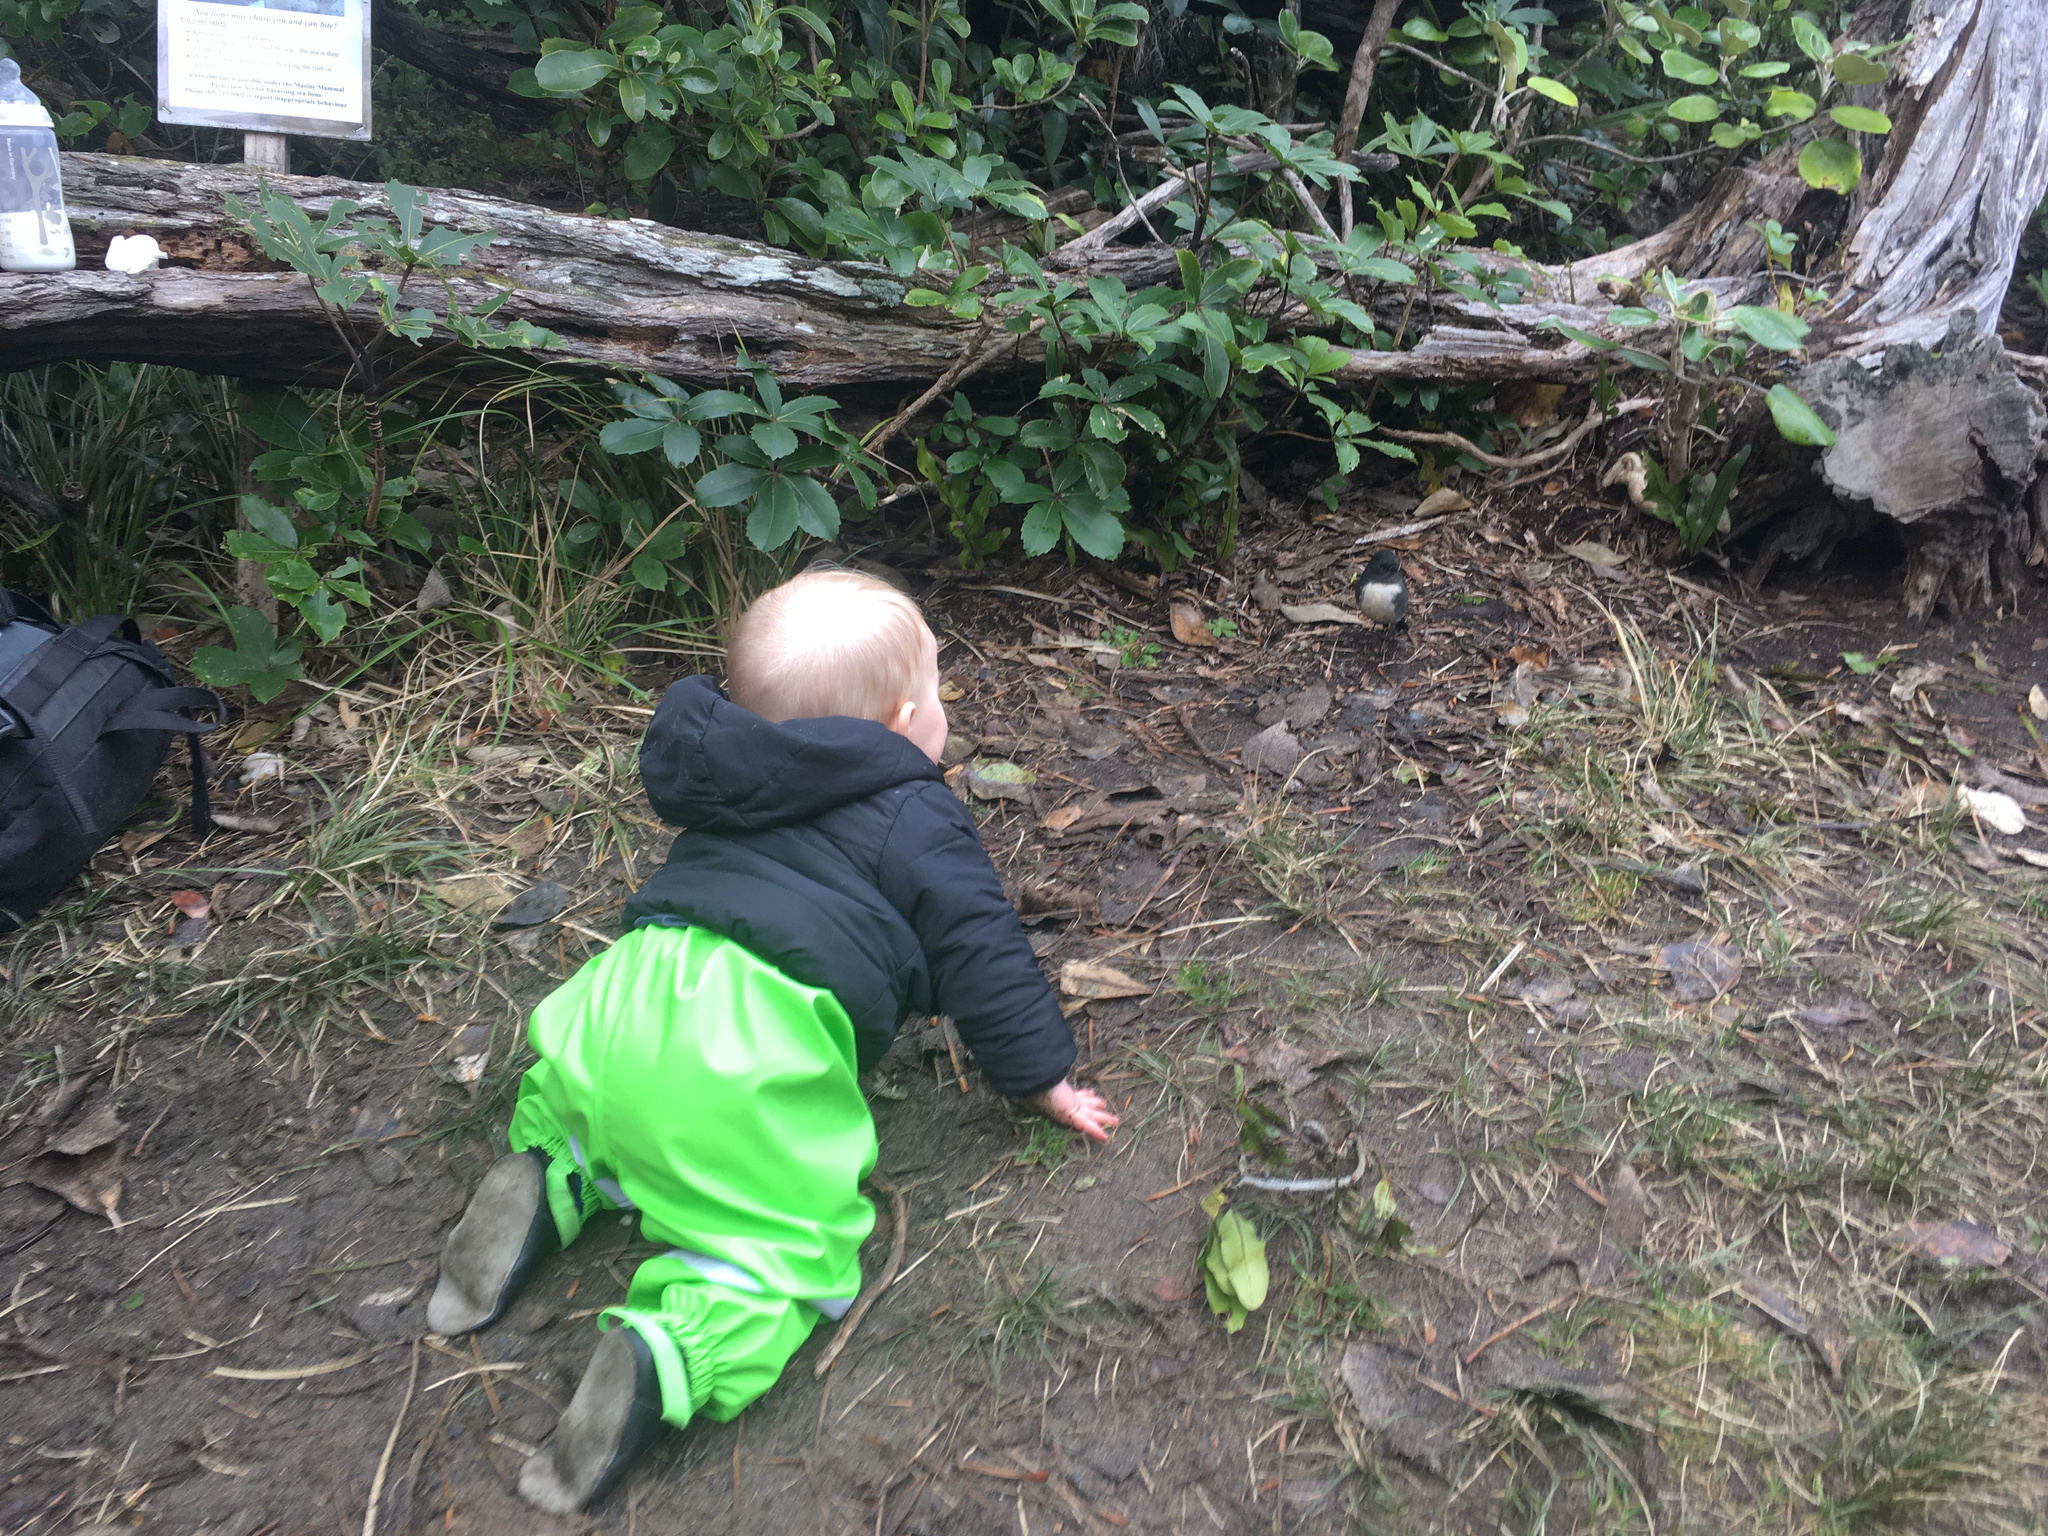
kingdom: Animalia
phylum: Chordata
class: Aves
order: Passeriformes
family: Petroicidae
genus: Petroica
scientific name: Petroica australis
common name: New zealand robin
